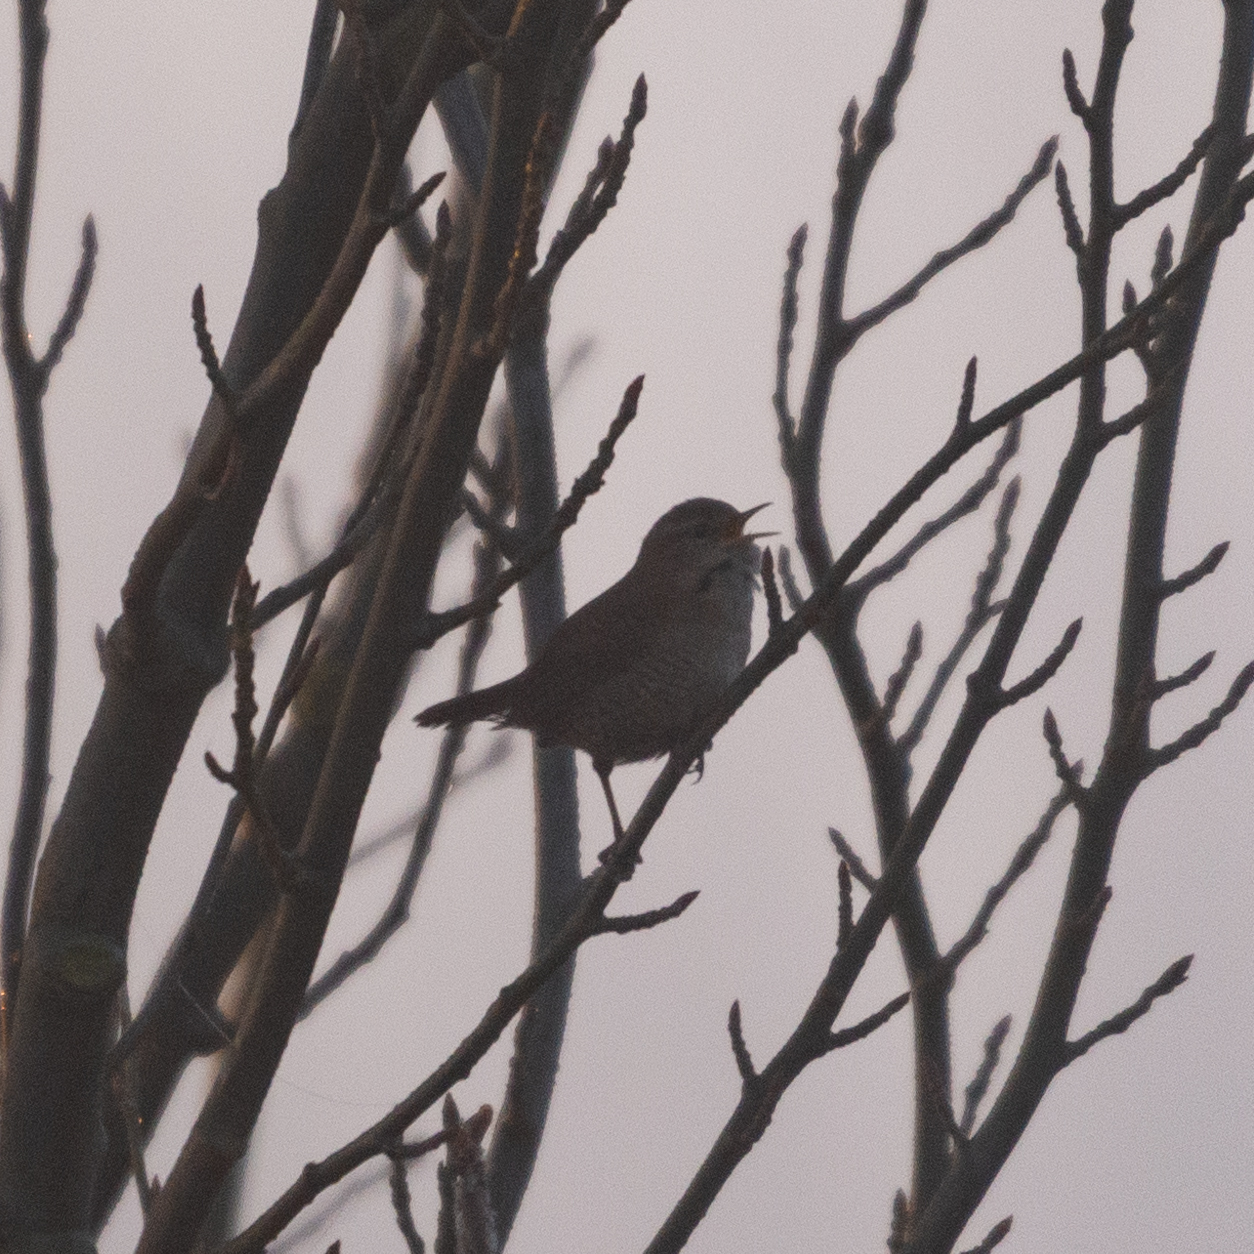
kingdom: Animalia
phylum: Chordata
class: Aves
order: Passeriformes
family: Troglodytidae
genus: Troglodytes
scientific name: Troglodytes troglodytes
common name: Eurasian wren
